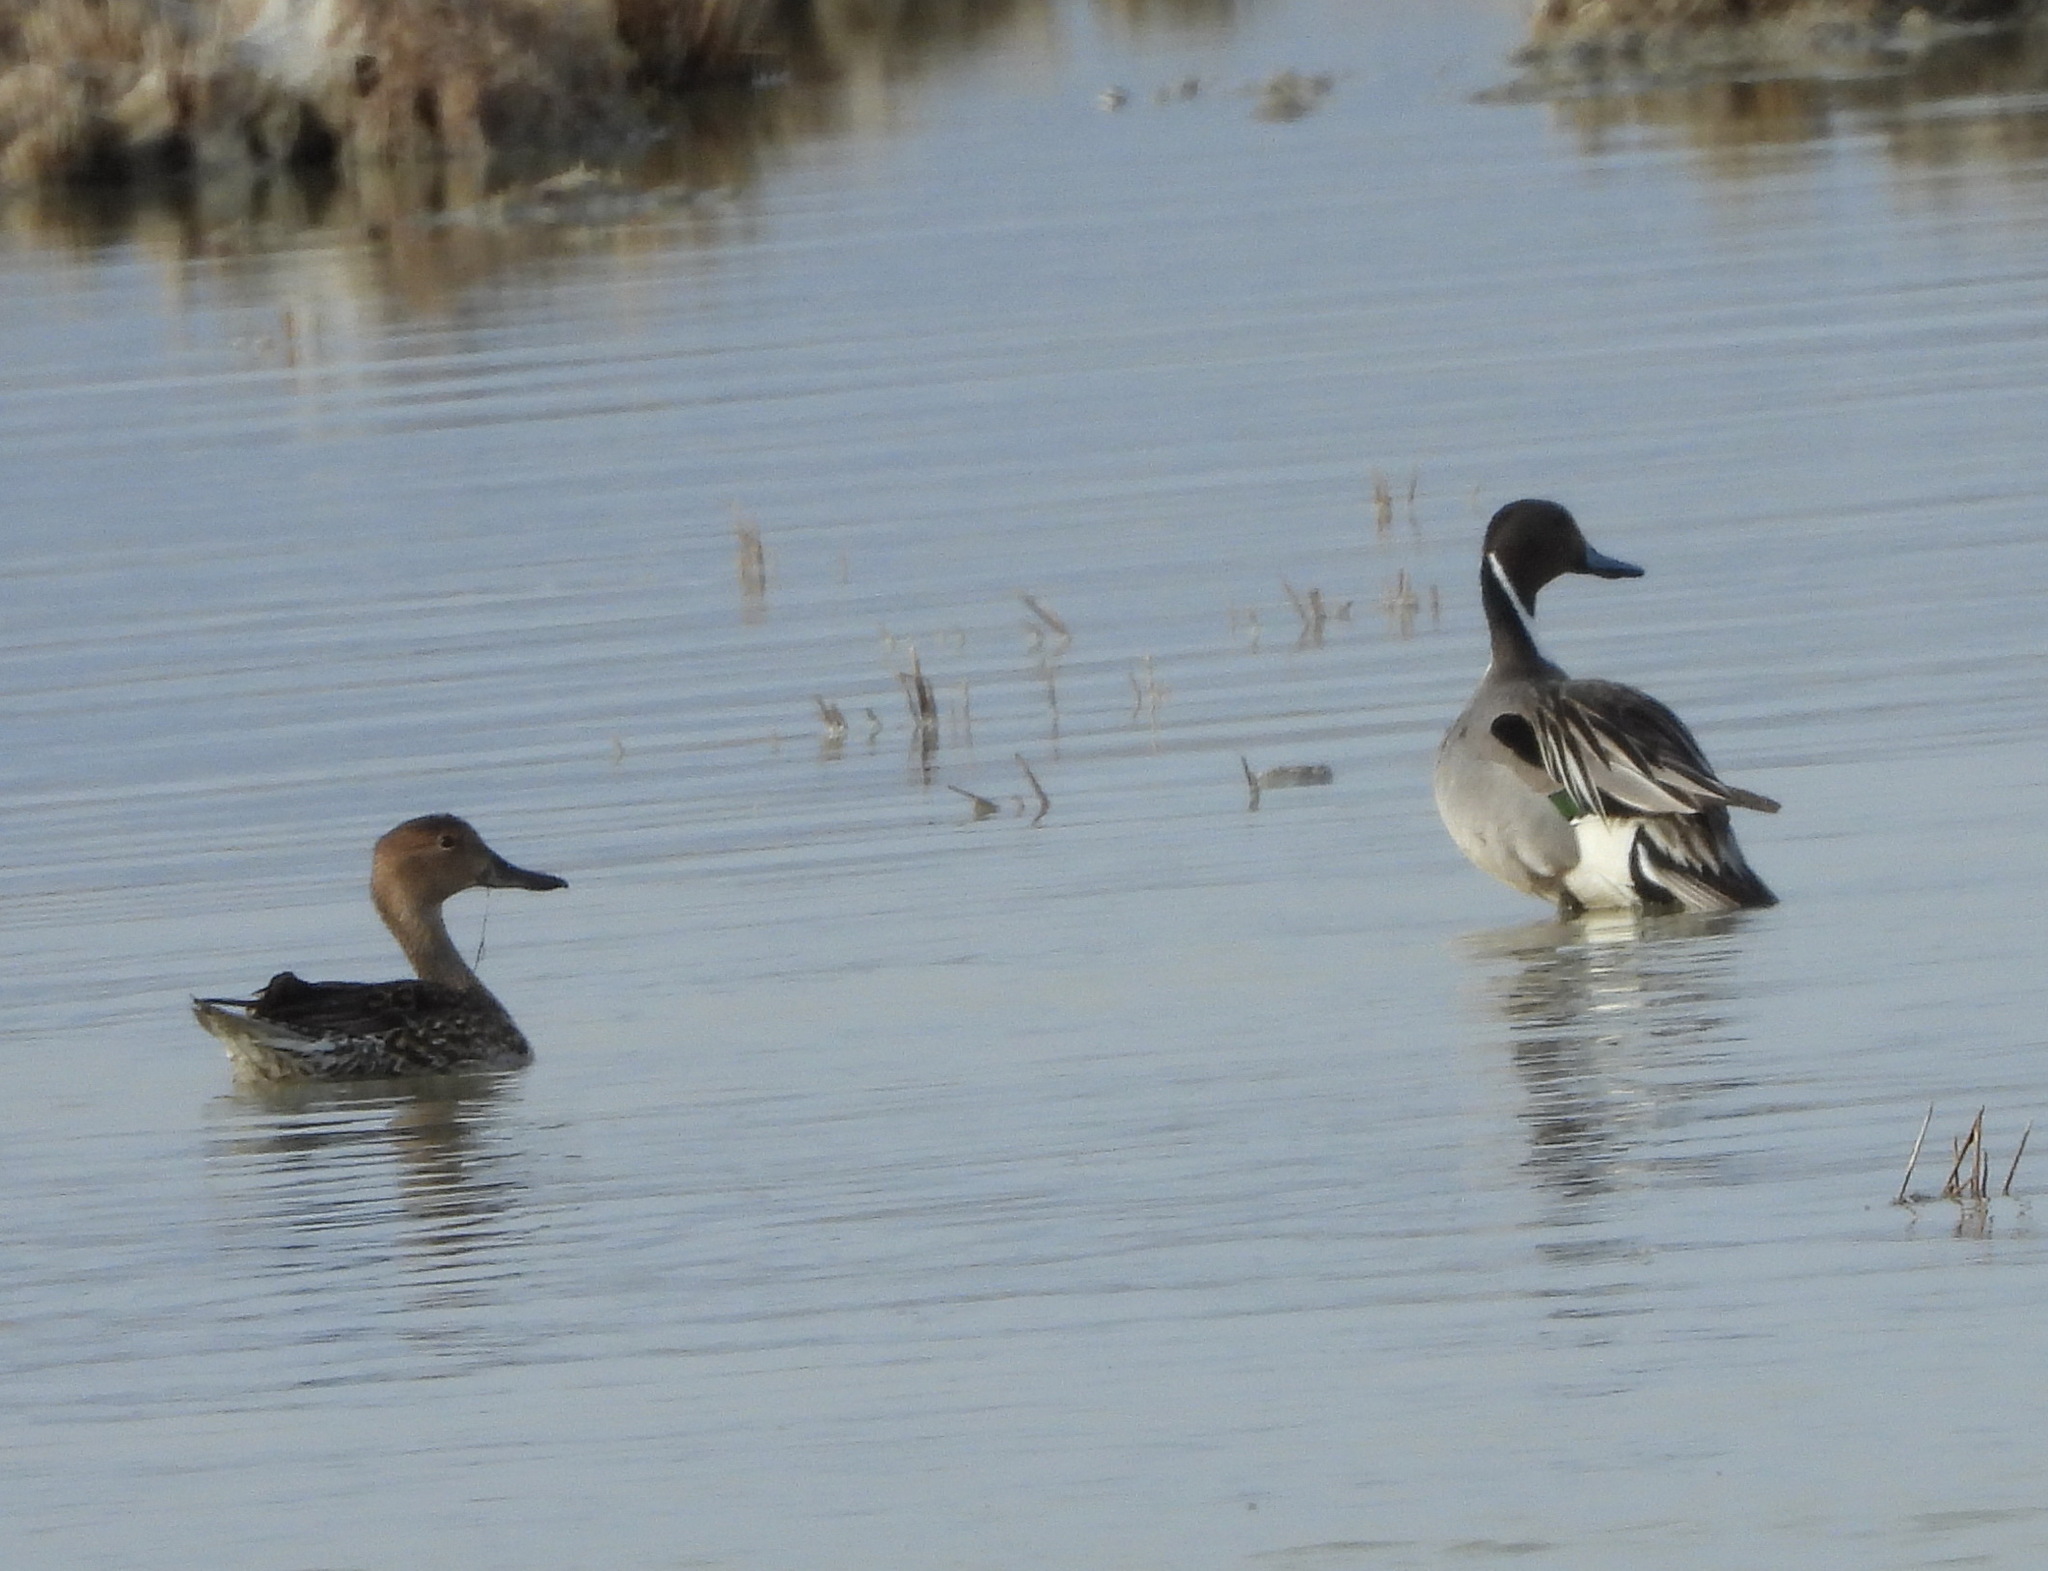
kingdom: Animalia
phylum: Chordata
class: Aves
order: Anseriformes
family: Anatidae
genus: Anas
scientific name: Anas acuta
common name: Northern pintail
